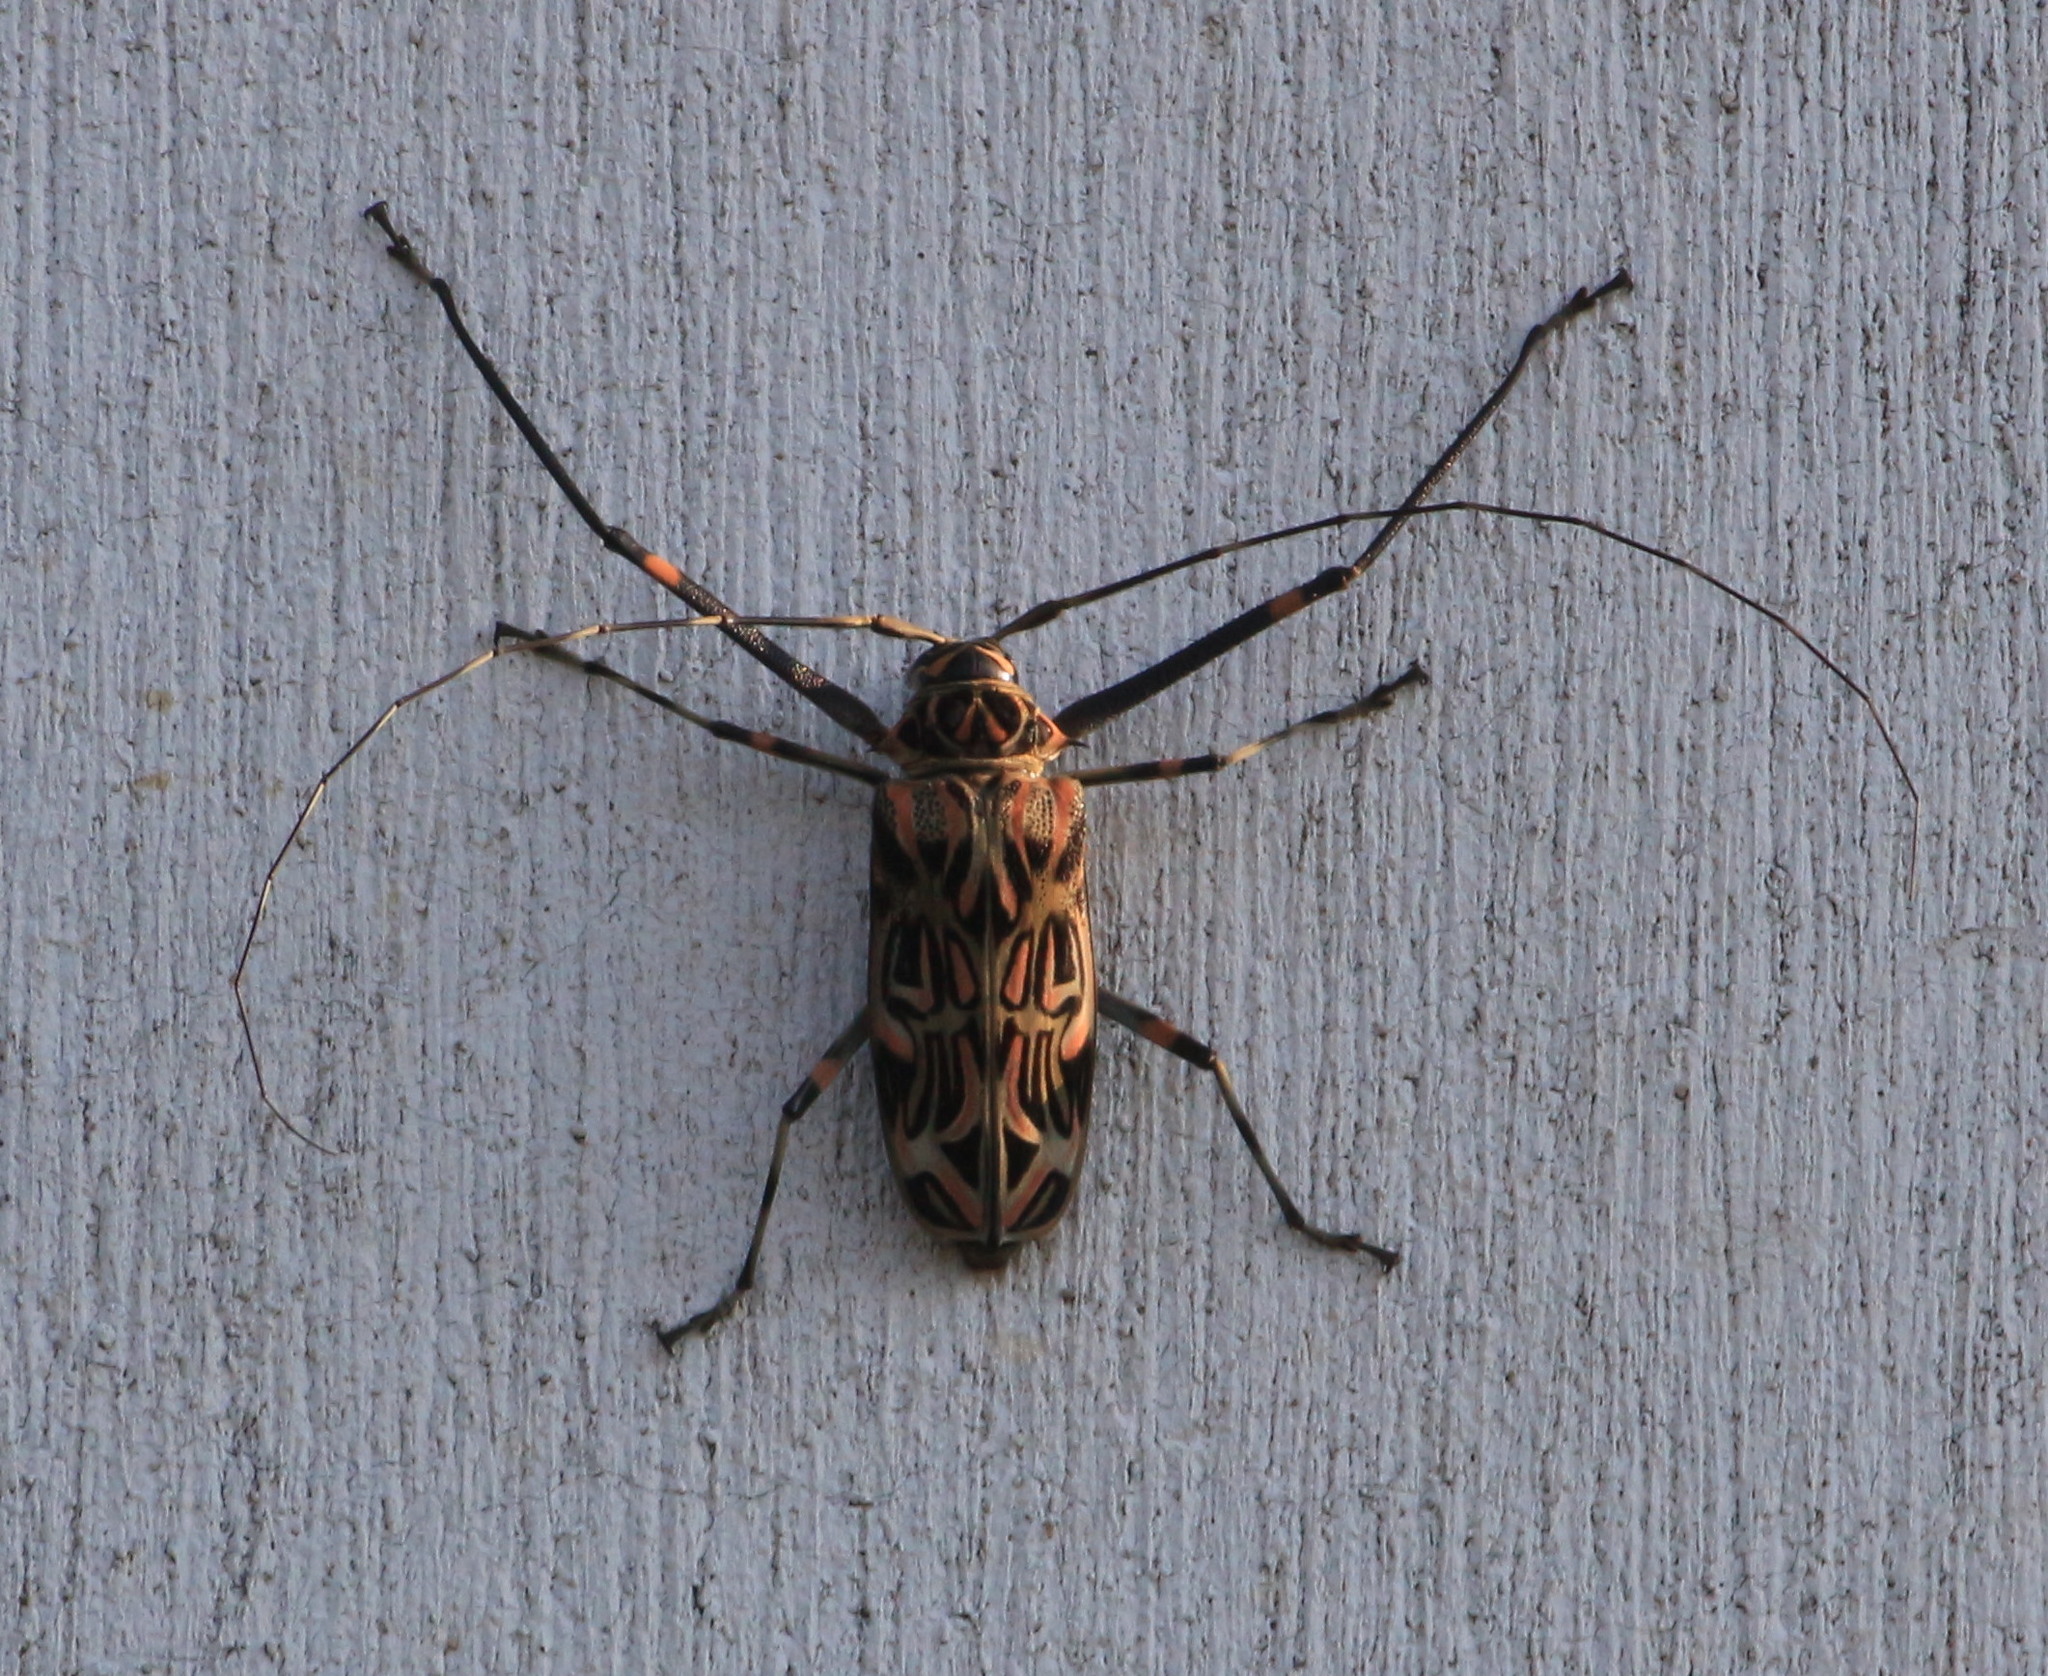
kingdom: Animalia
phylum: Arthropoda
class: Insecta
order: Coleoptera
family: Cerambycidae
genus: Acrocinus
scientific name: Acrocinus longimanus
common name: Arlequin
